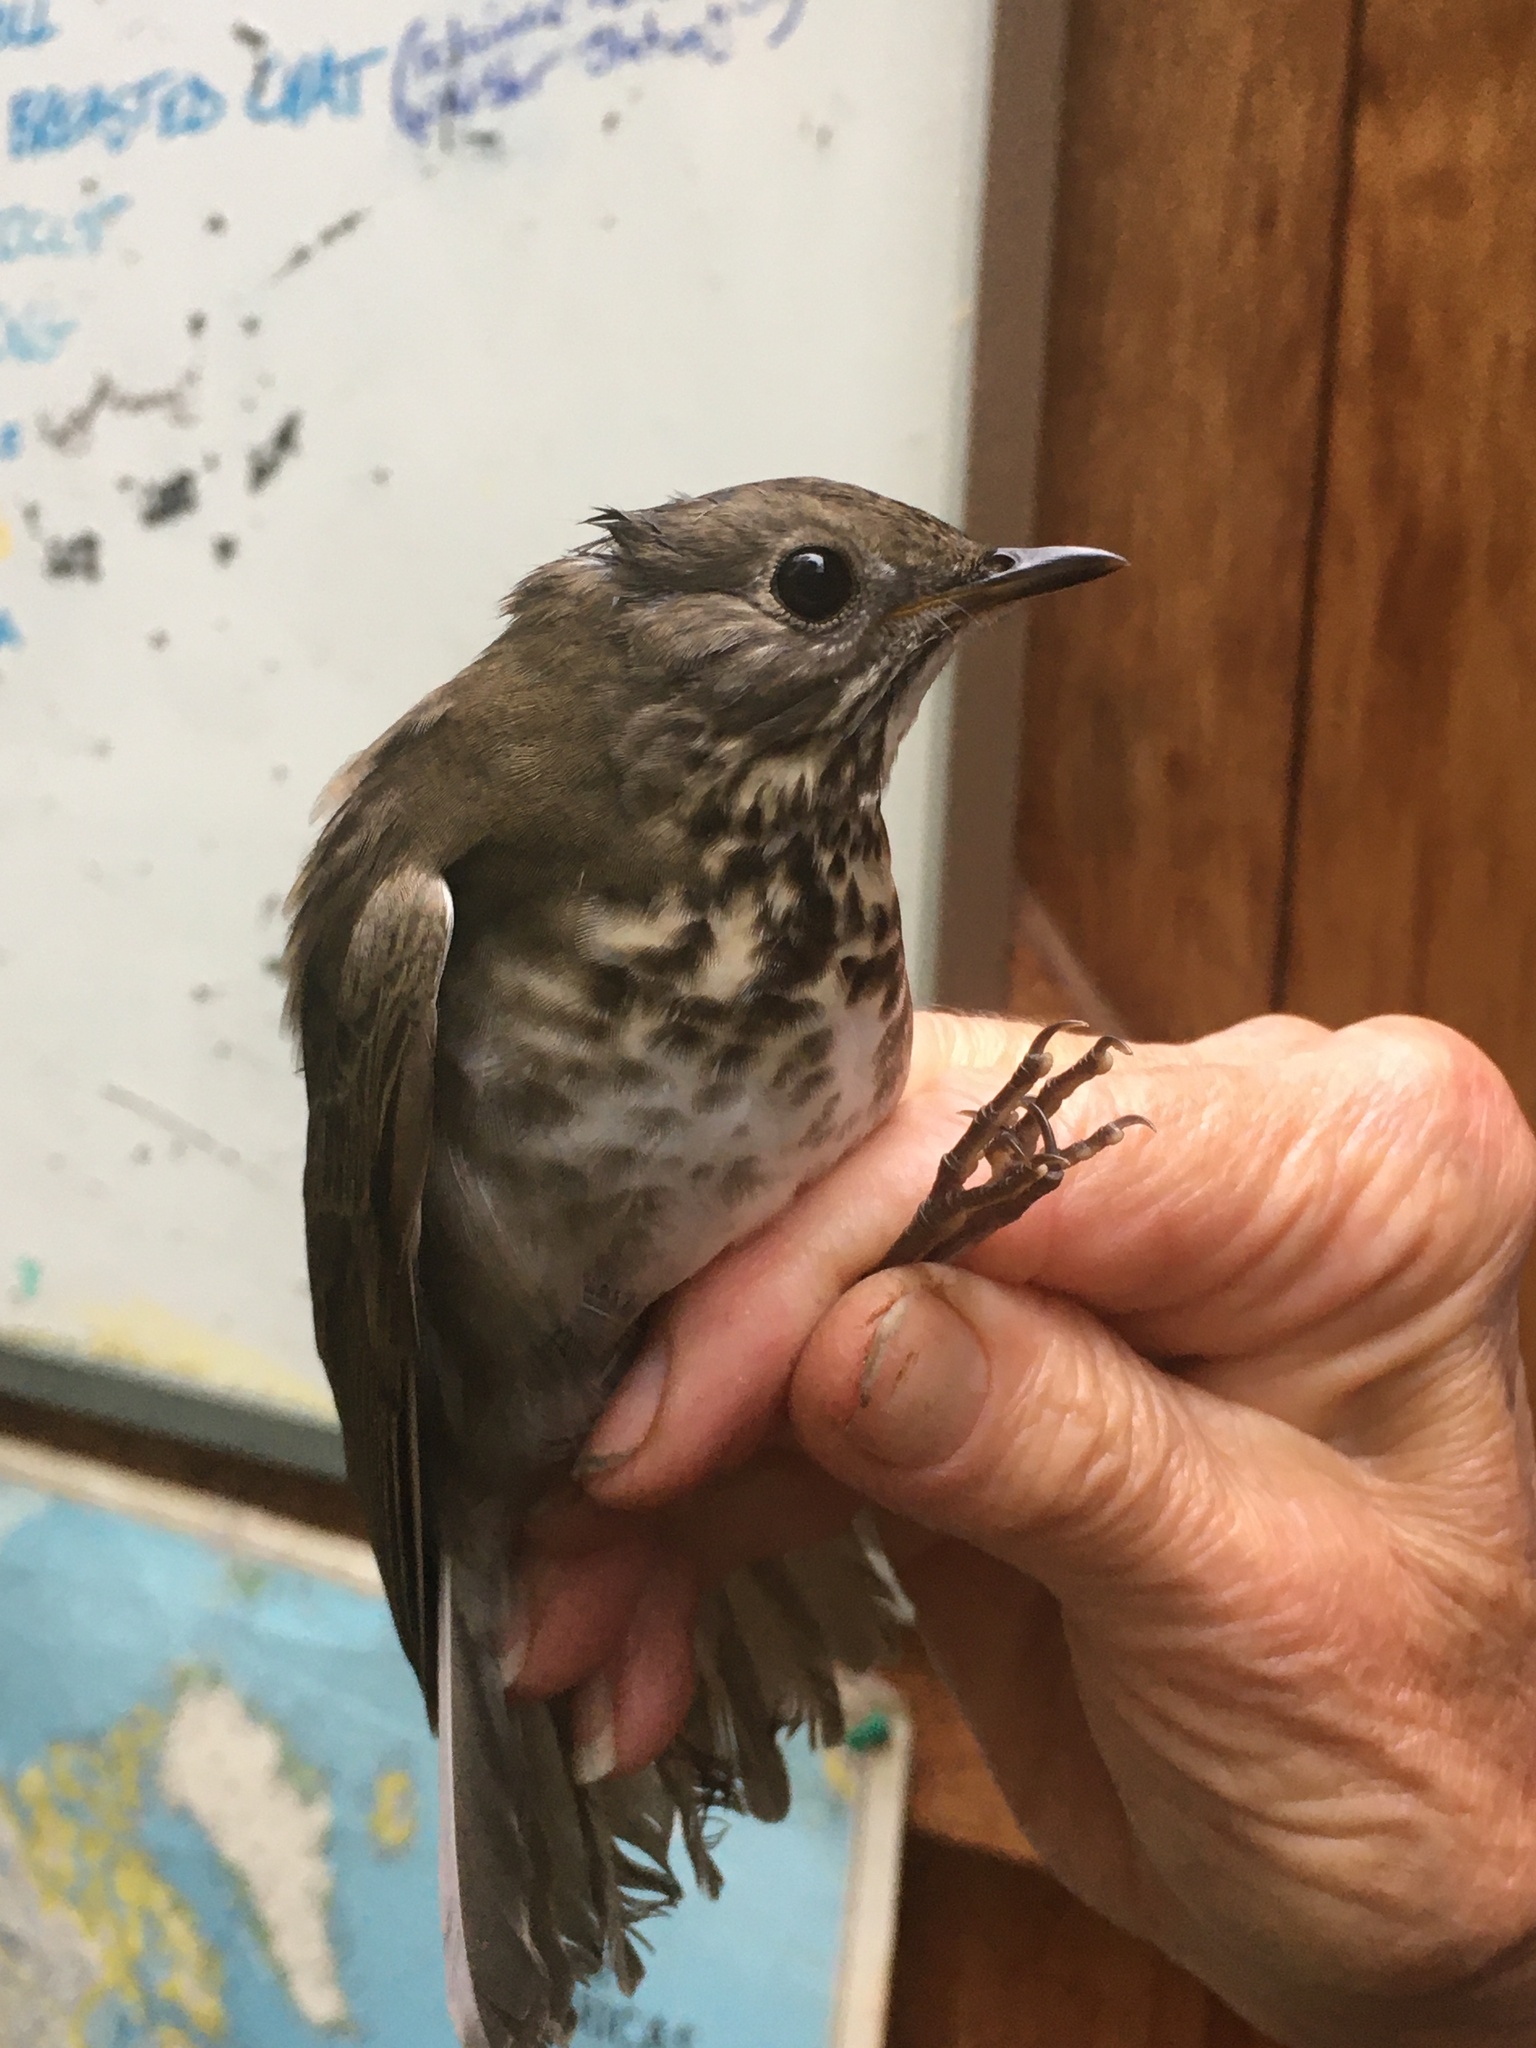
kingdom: Animalia
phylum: Chordata
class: Aves
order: Passeriformes
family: Turdidae
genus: Catharus
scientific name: Catharus minimus
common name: Grey-cheeked thrush
